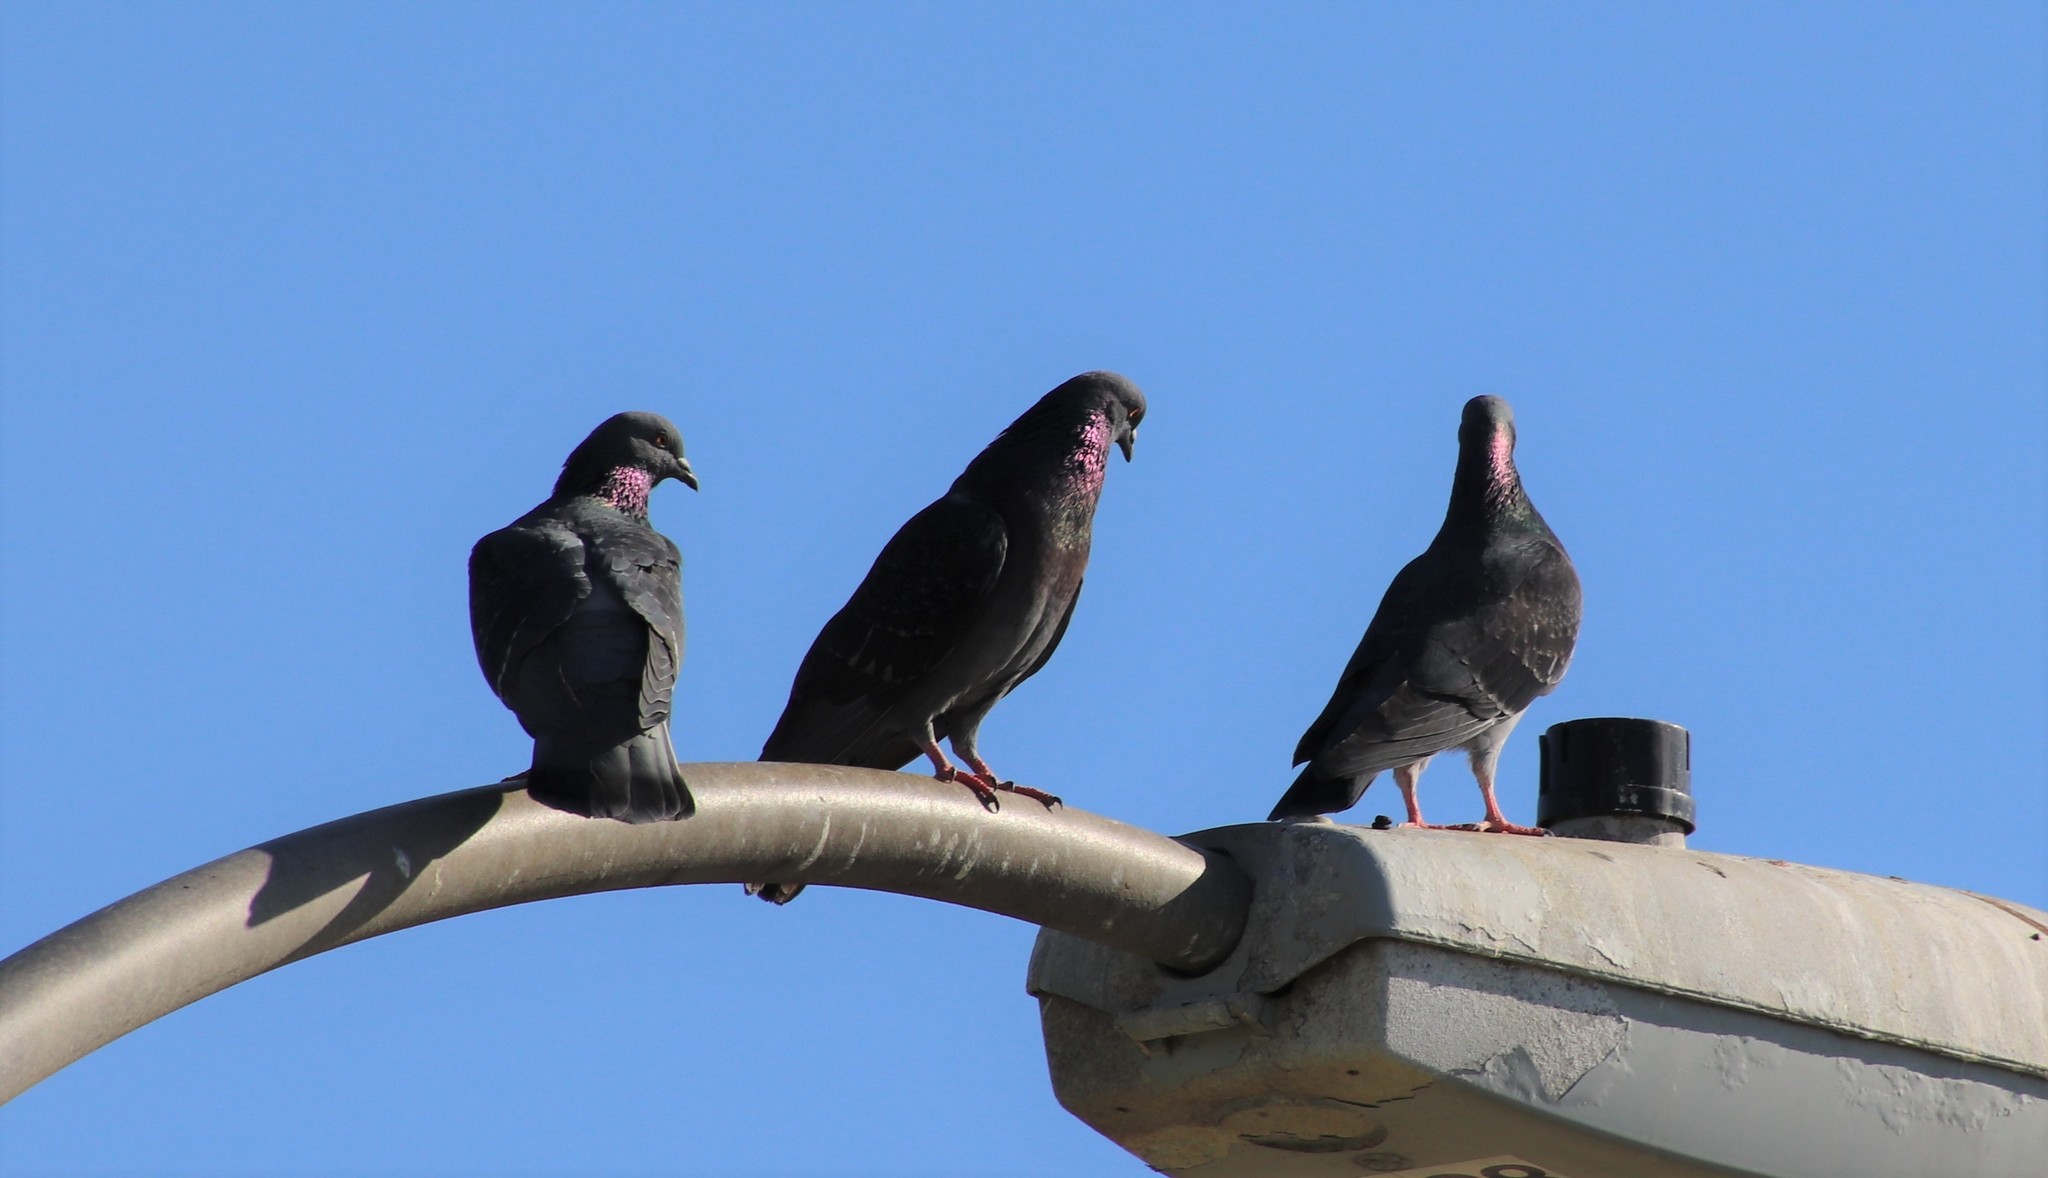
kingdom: Animalia
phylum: Chordata
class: Aves
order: Columbiformes
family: Columbidae
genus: Columba
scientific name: Columba livia
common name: Rock pigeon
